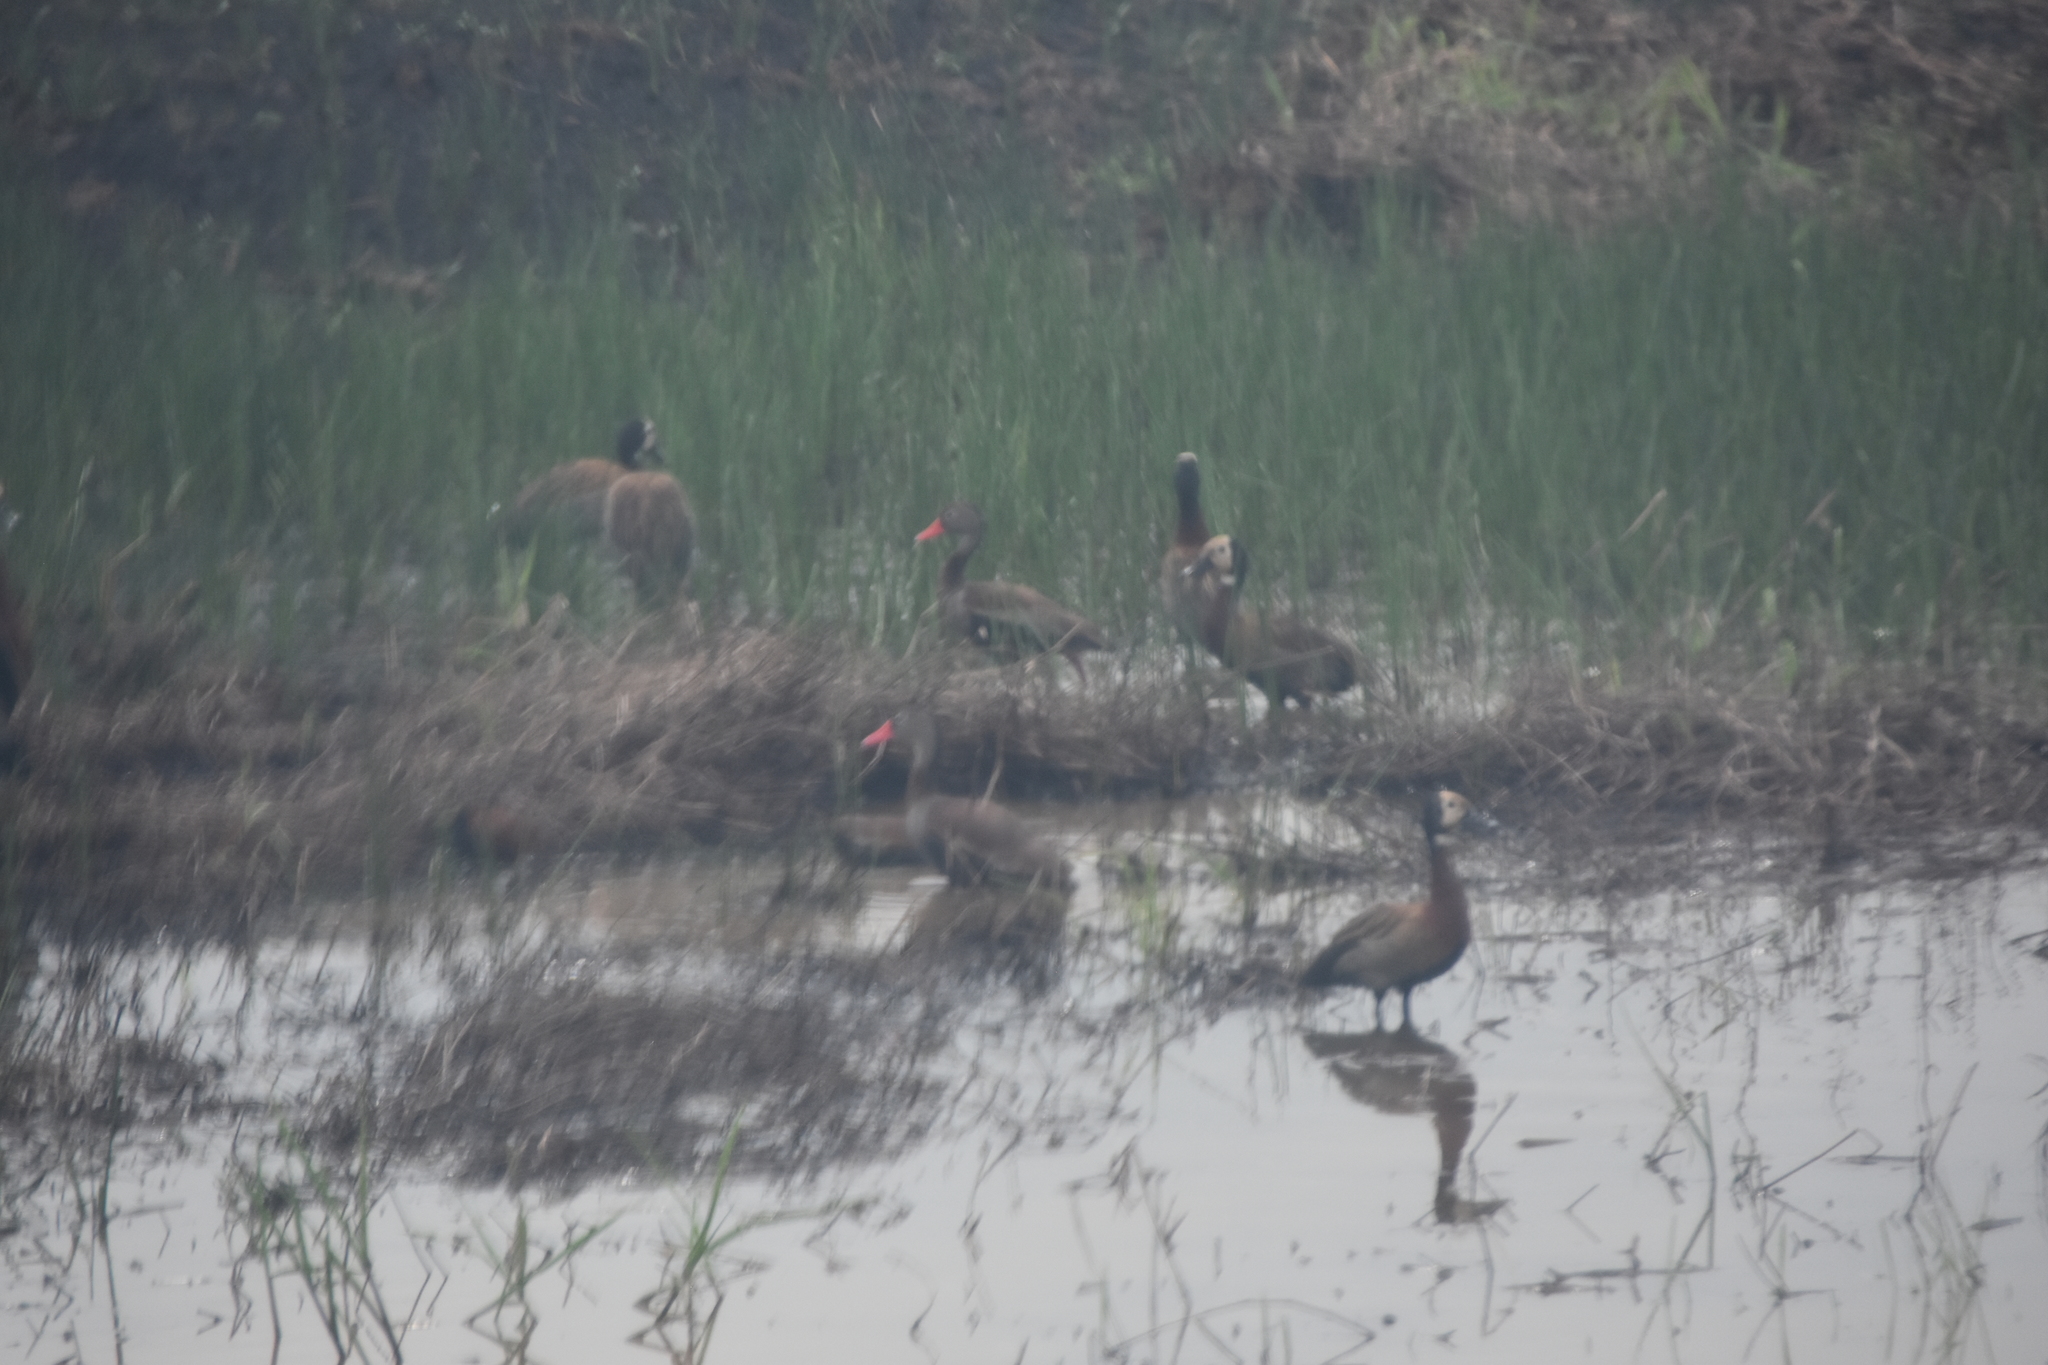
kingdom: Animalia
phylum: Chordata
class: Aves
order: Anseriformes
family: Anatidae
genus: Dendrocygna
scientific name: Dendrocygna autumnalis
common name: Black-bellied whistling duck
